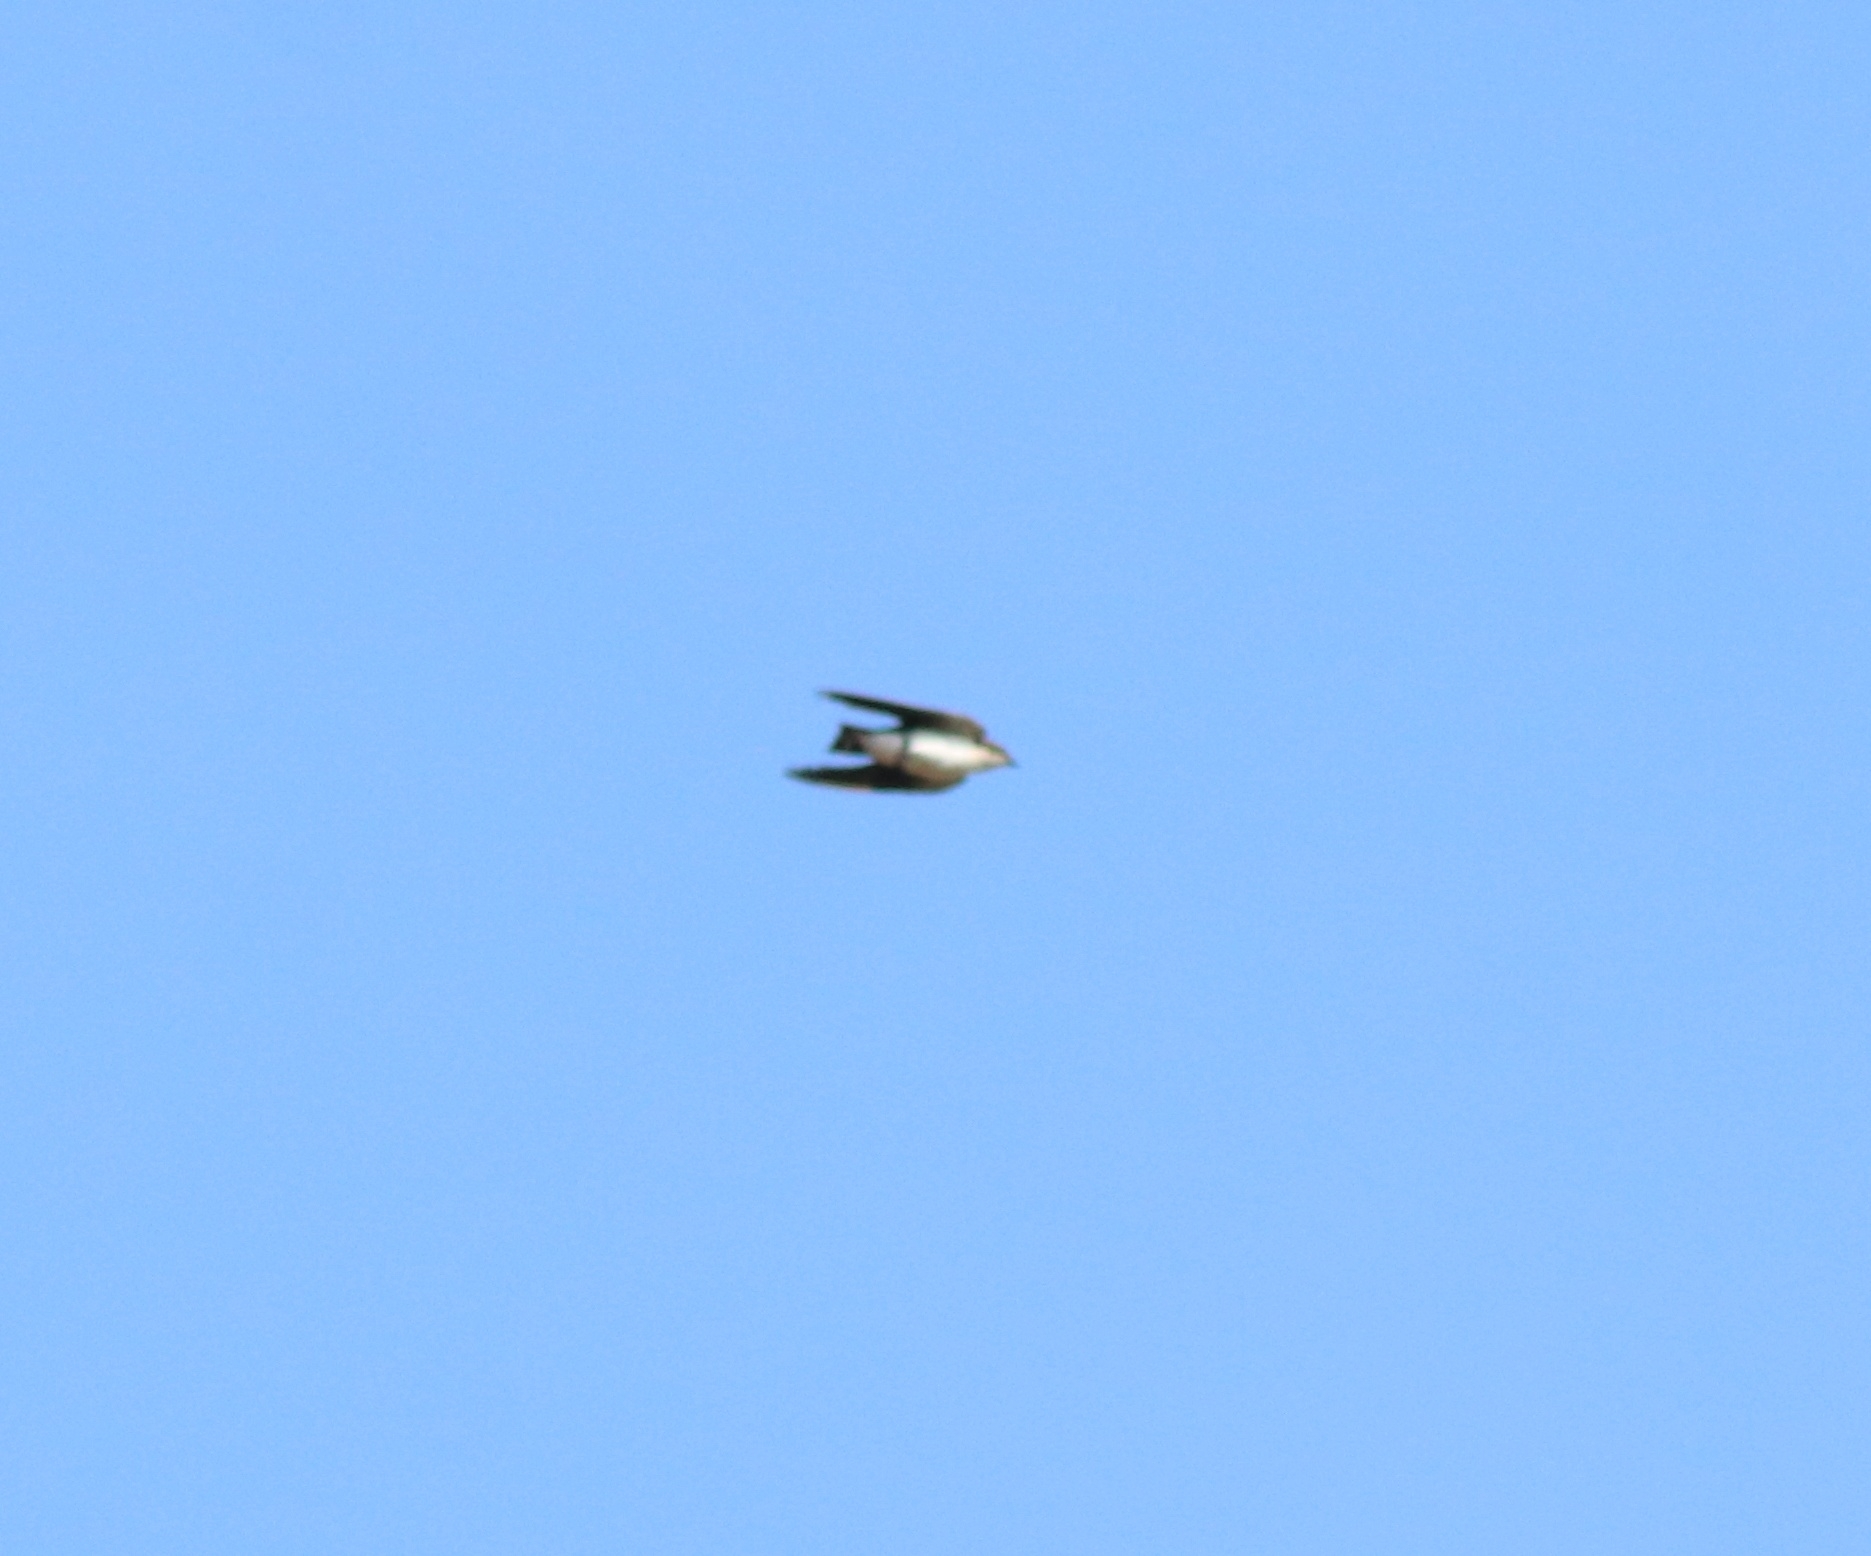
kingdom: Animalia
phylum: Chordata
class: Aves
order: Passeriformes
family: Hirundinidae
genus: Hirundo
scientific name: Hirundo smithii
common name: Wire-tailed swallow
